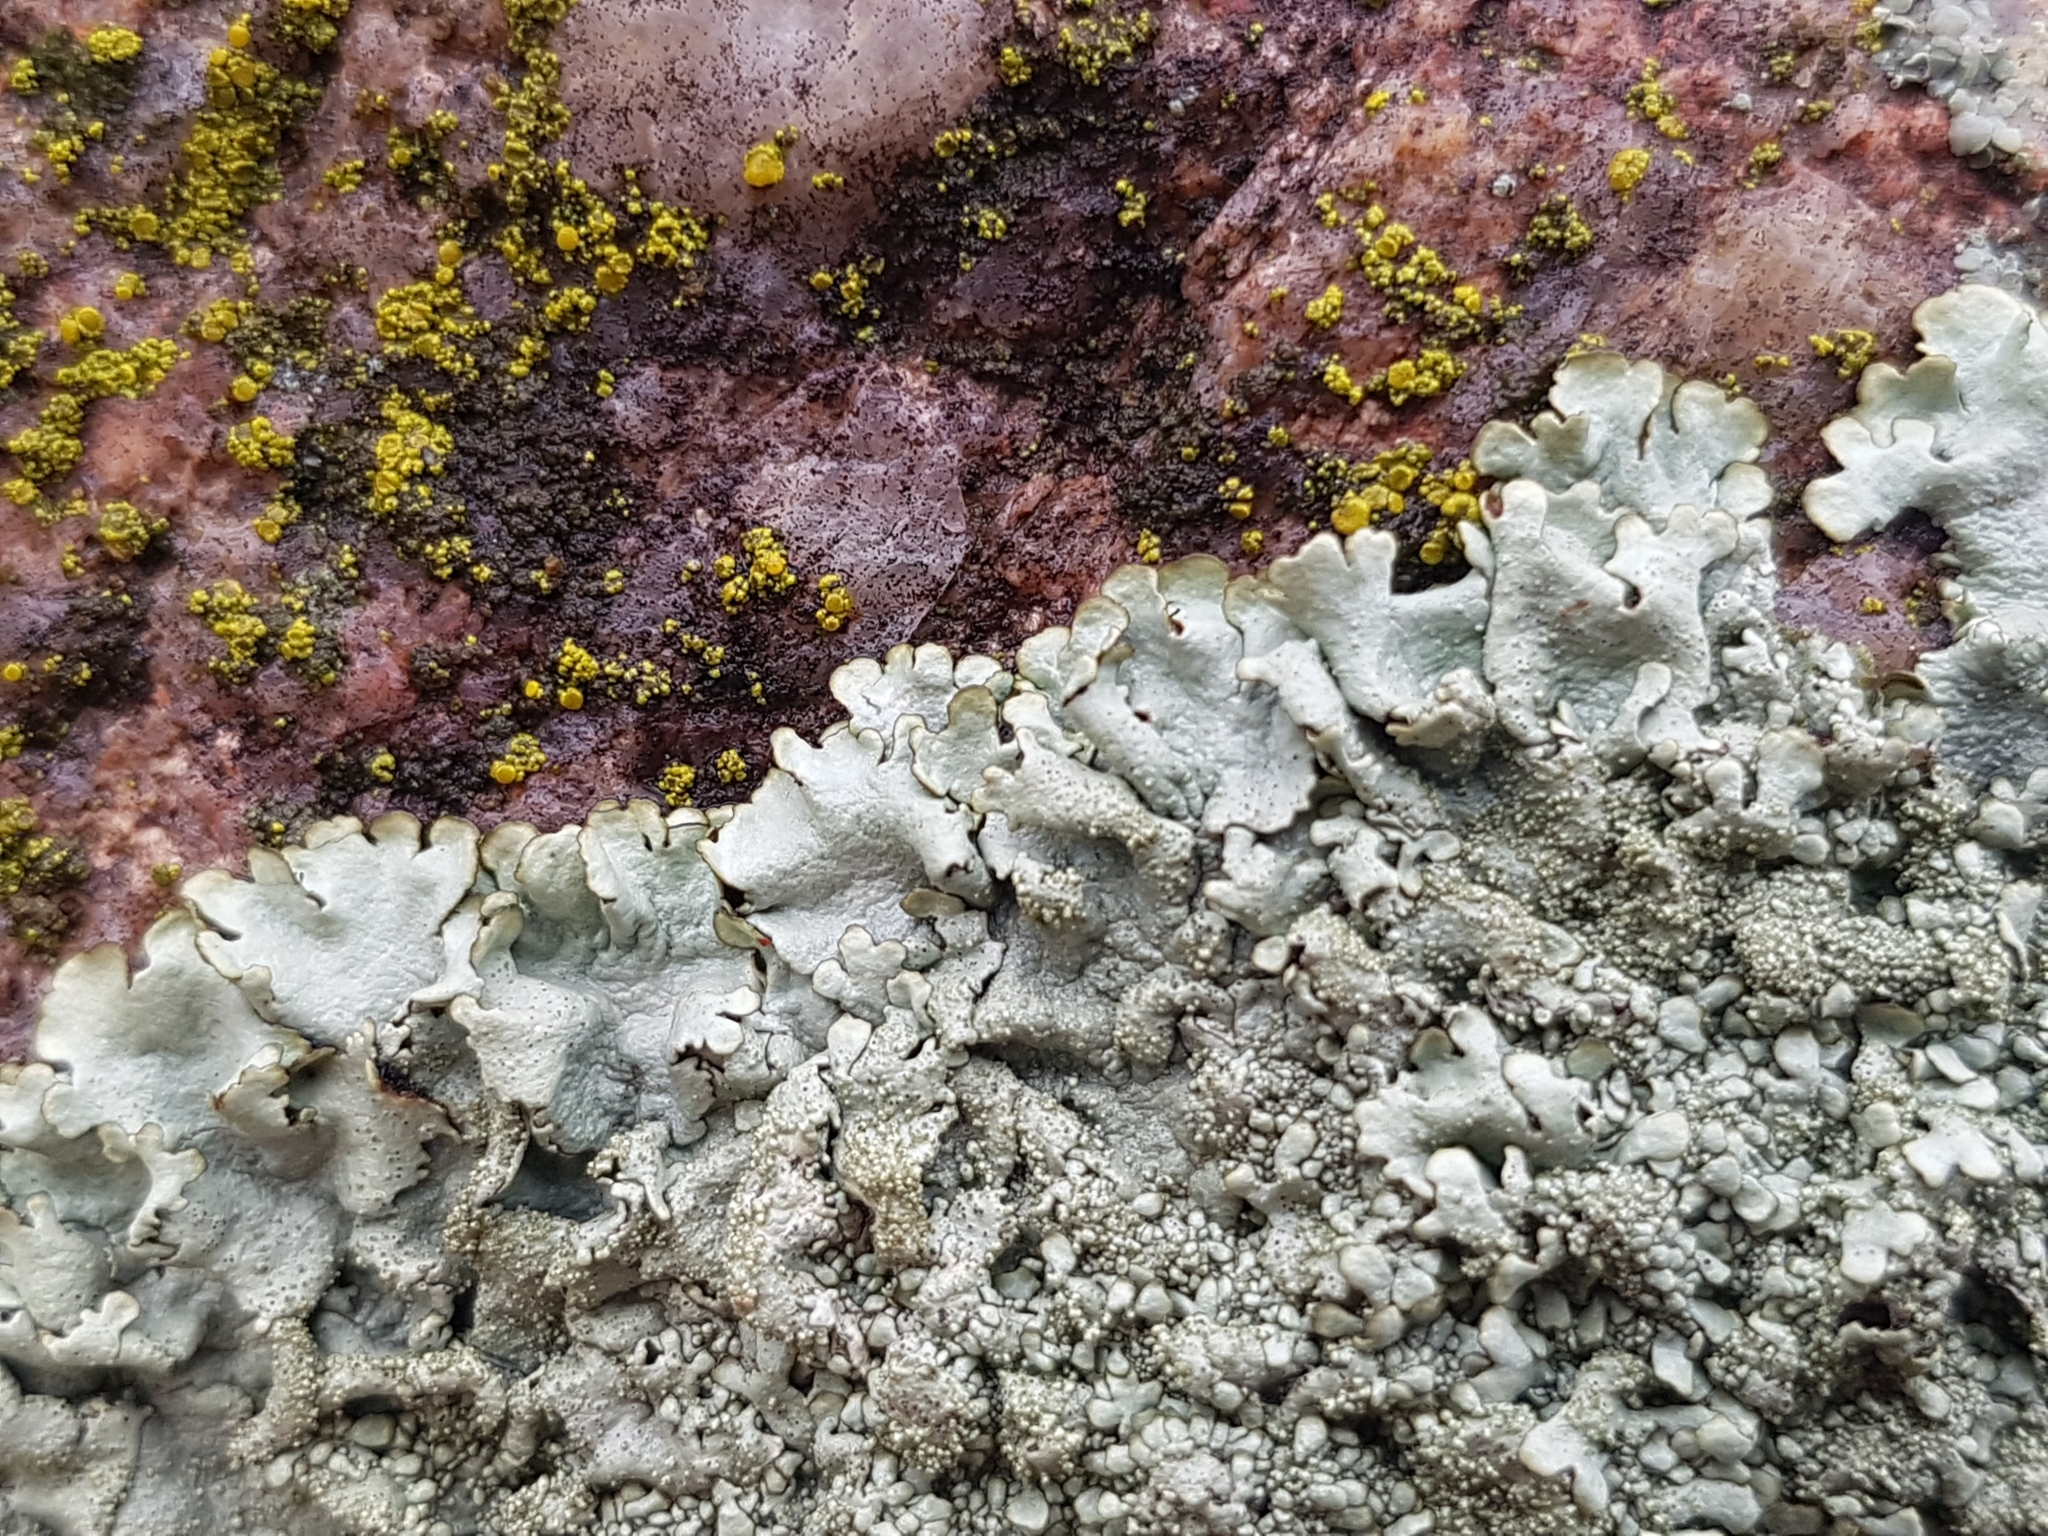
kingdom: Fungi
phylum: Ascomycota
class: Lecanoromycetes
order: Lecanorales
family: Parmeliaceae
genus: Xanthoparmelia
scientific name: Xanthoparmelia conspersa
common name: Peppered rock shield
